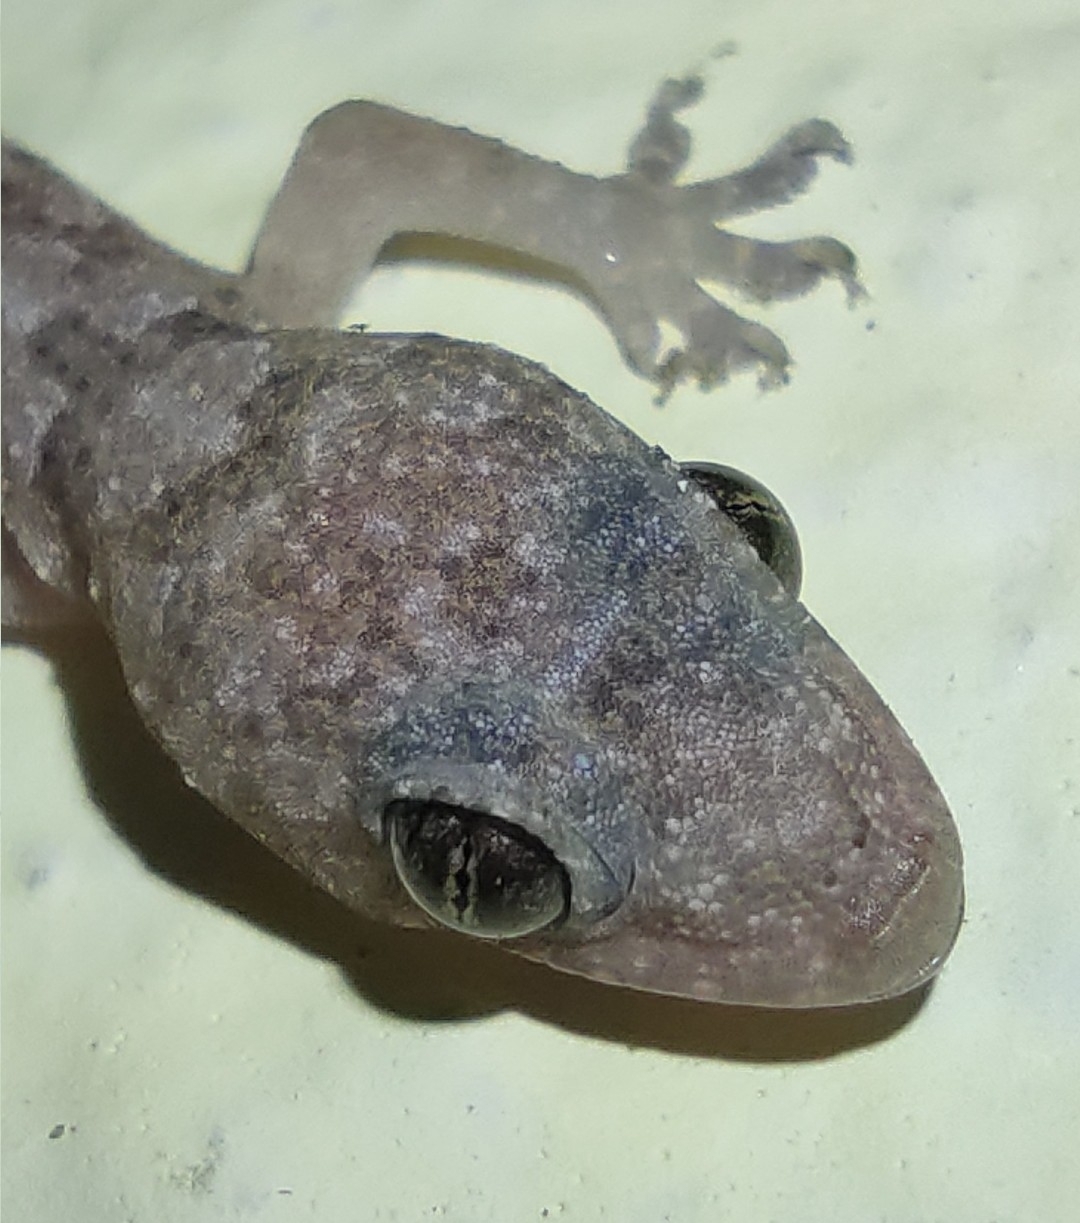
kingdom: Animalia
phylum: Chordata
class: Squamata
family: Gekkonidae
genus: Hemidactylus
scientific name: Hemidactylus mabouia
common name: House gecko
